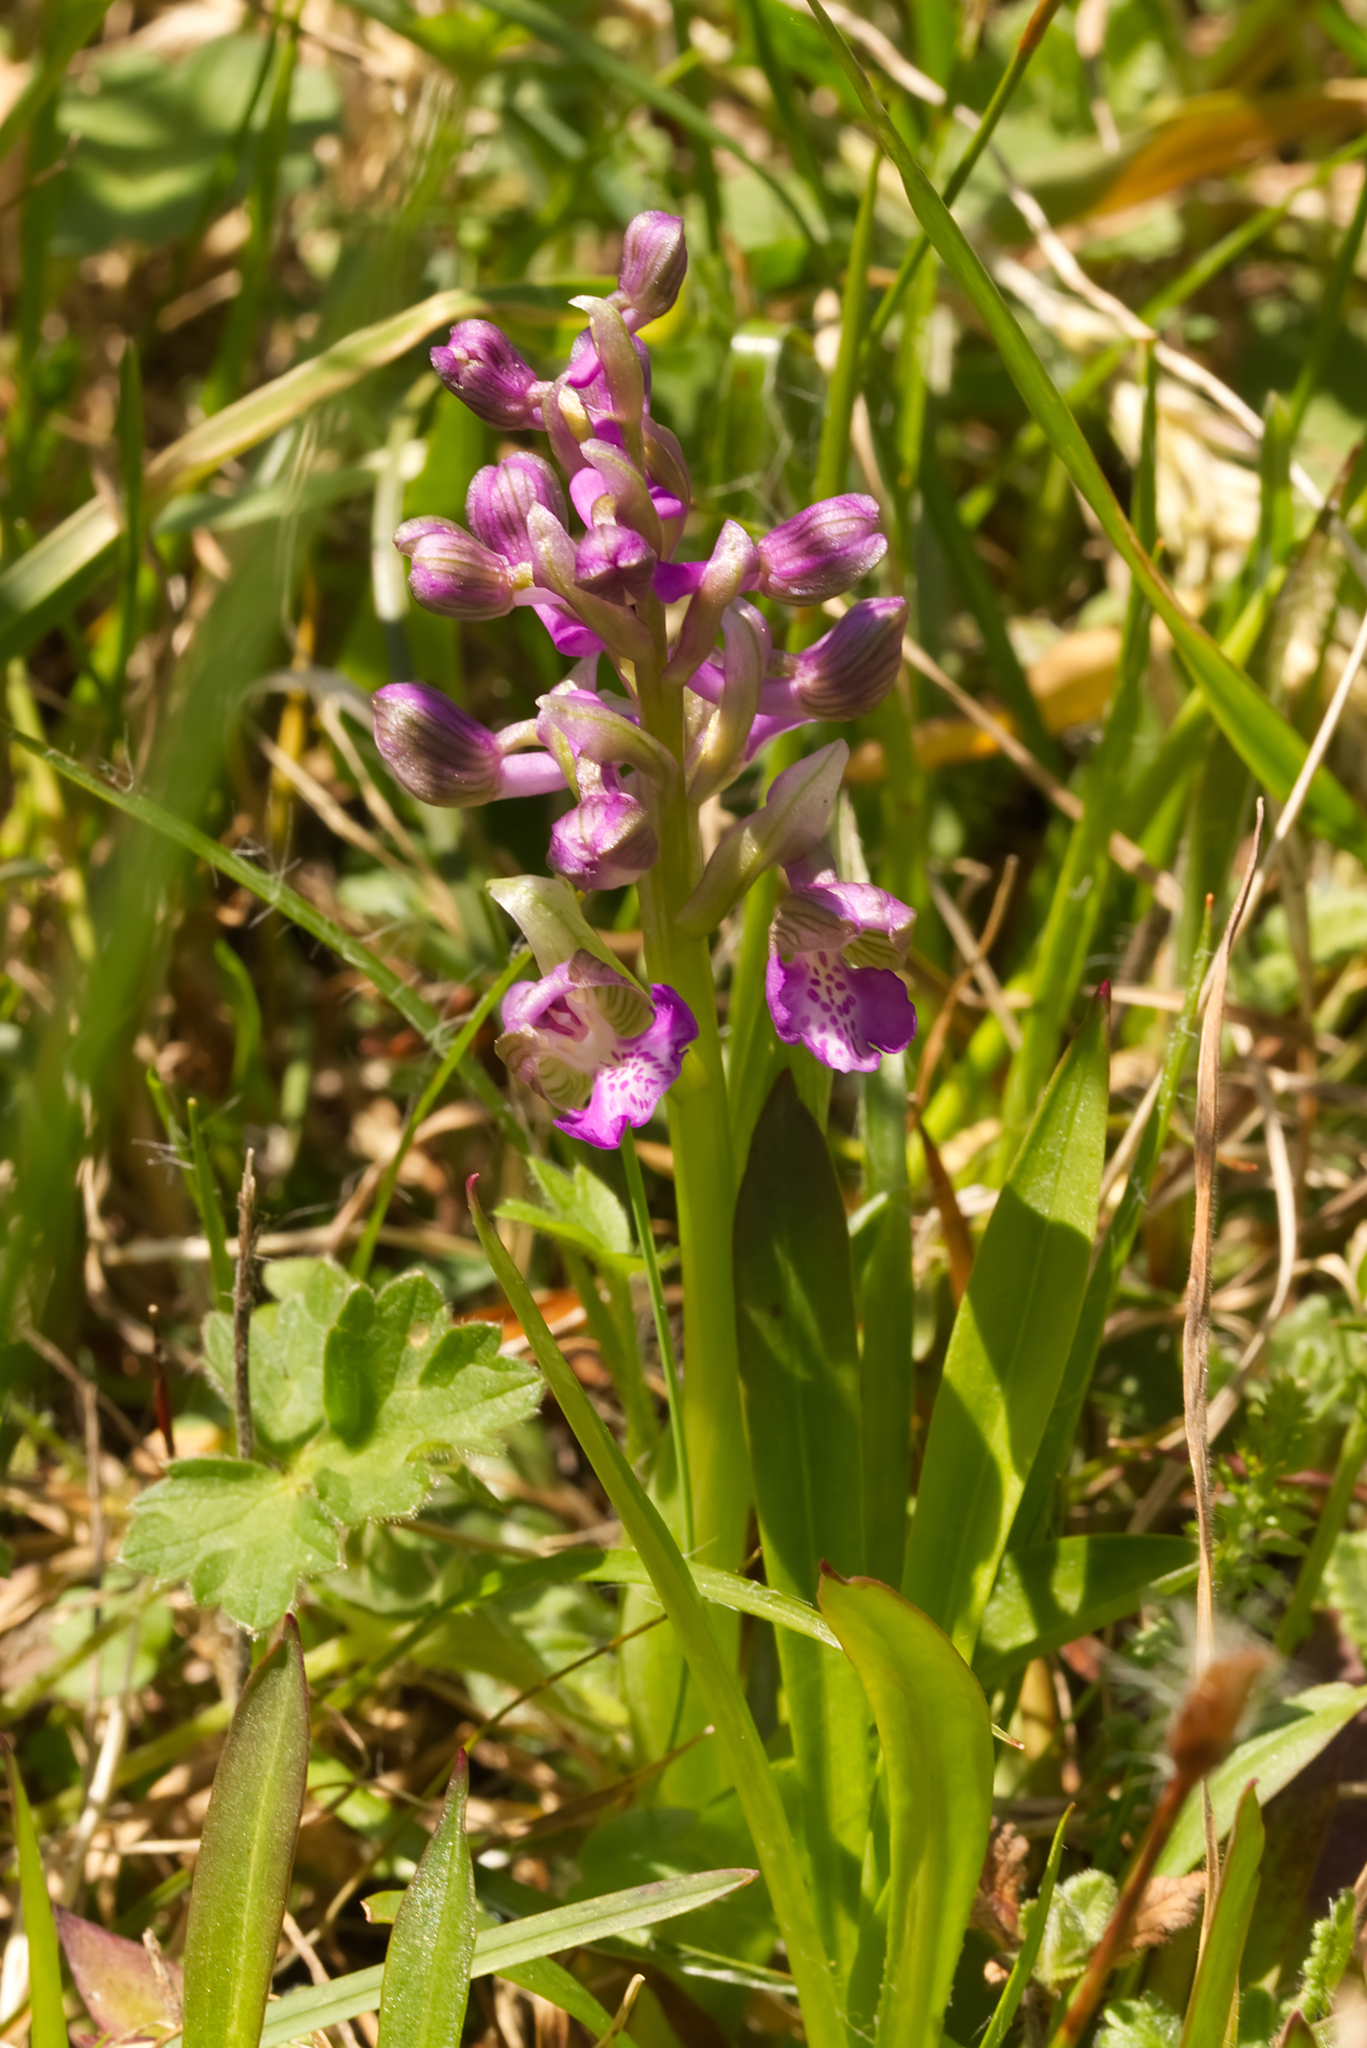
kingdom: Plantae
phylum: Tracheophyta
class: Liliopsida
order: Asparagales
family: Orchidaceae
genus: Anacamptis
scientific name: Anacamptis morio
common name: Green-winged orchid
